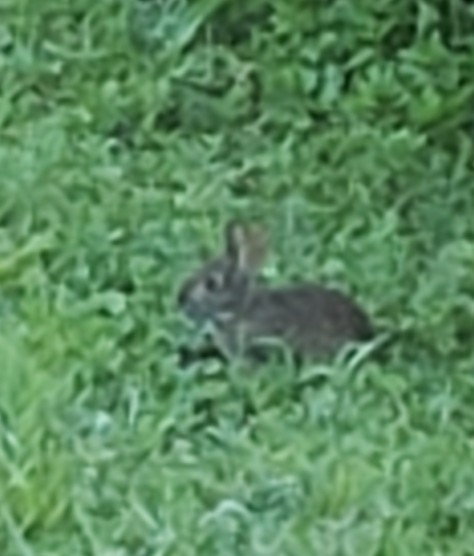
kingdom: Animalia
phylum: Chordata
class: Mammalia
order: Lagomorpha
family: Leporidae
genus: Sylvilagus
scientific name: Sylvilagus floridanus
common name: Eastern cottontail
